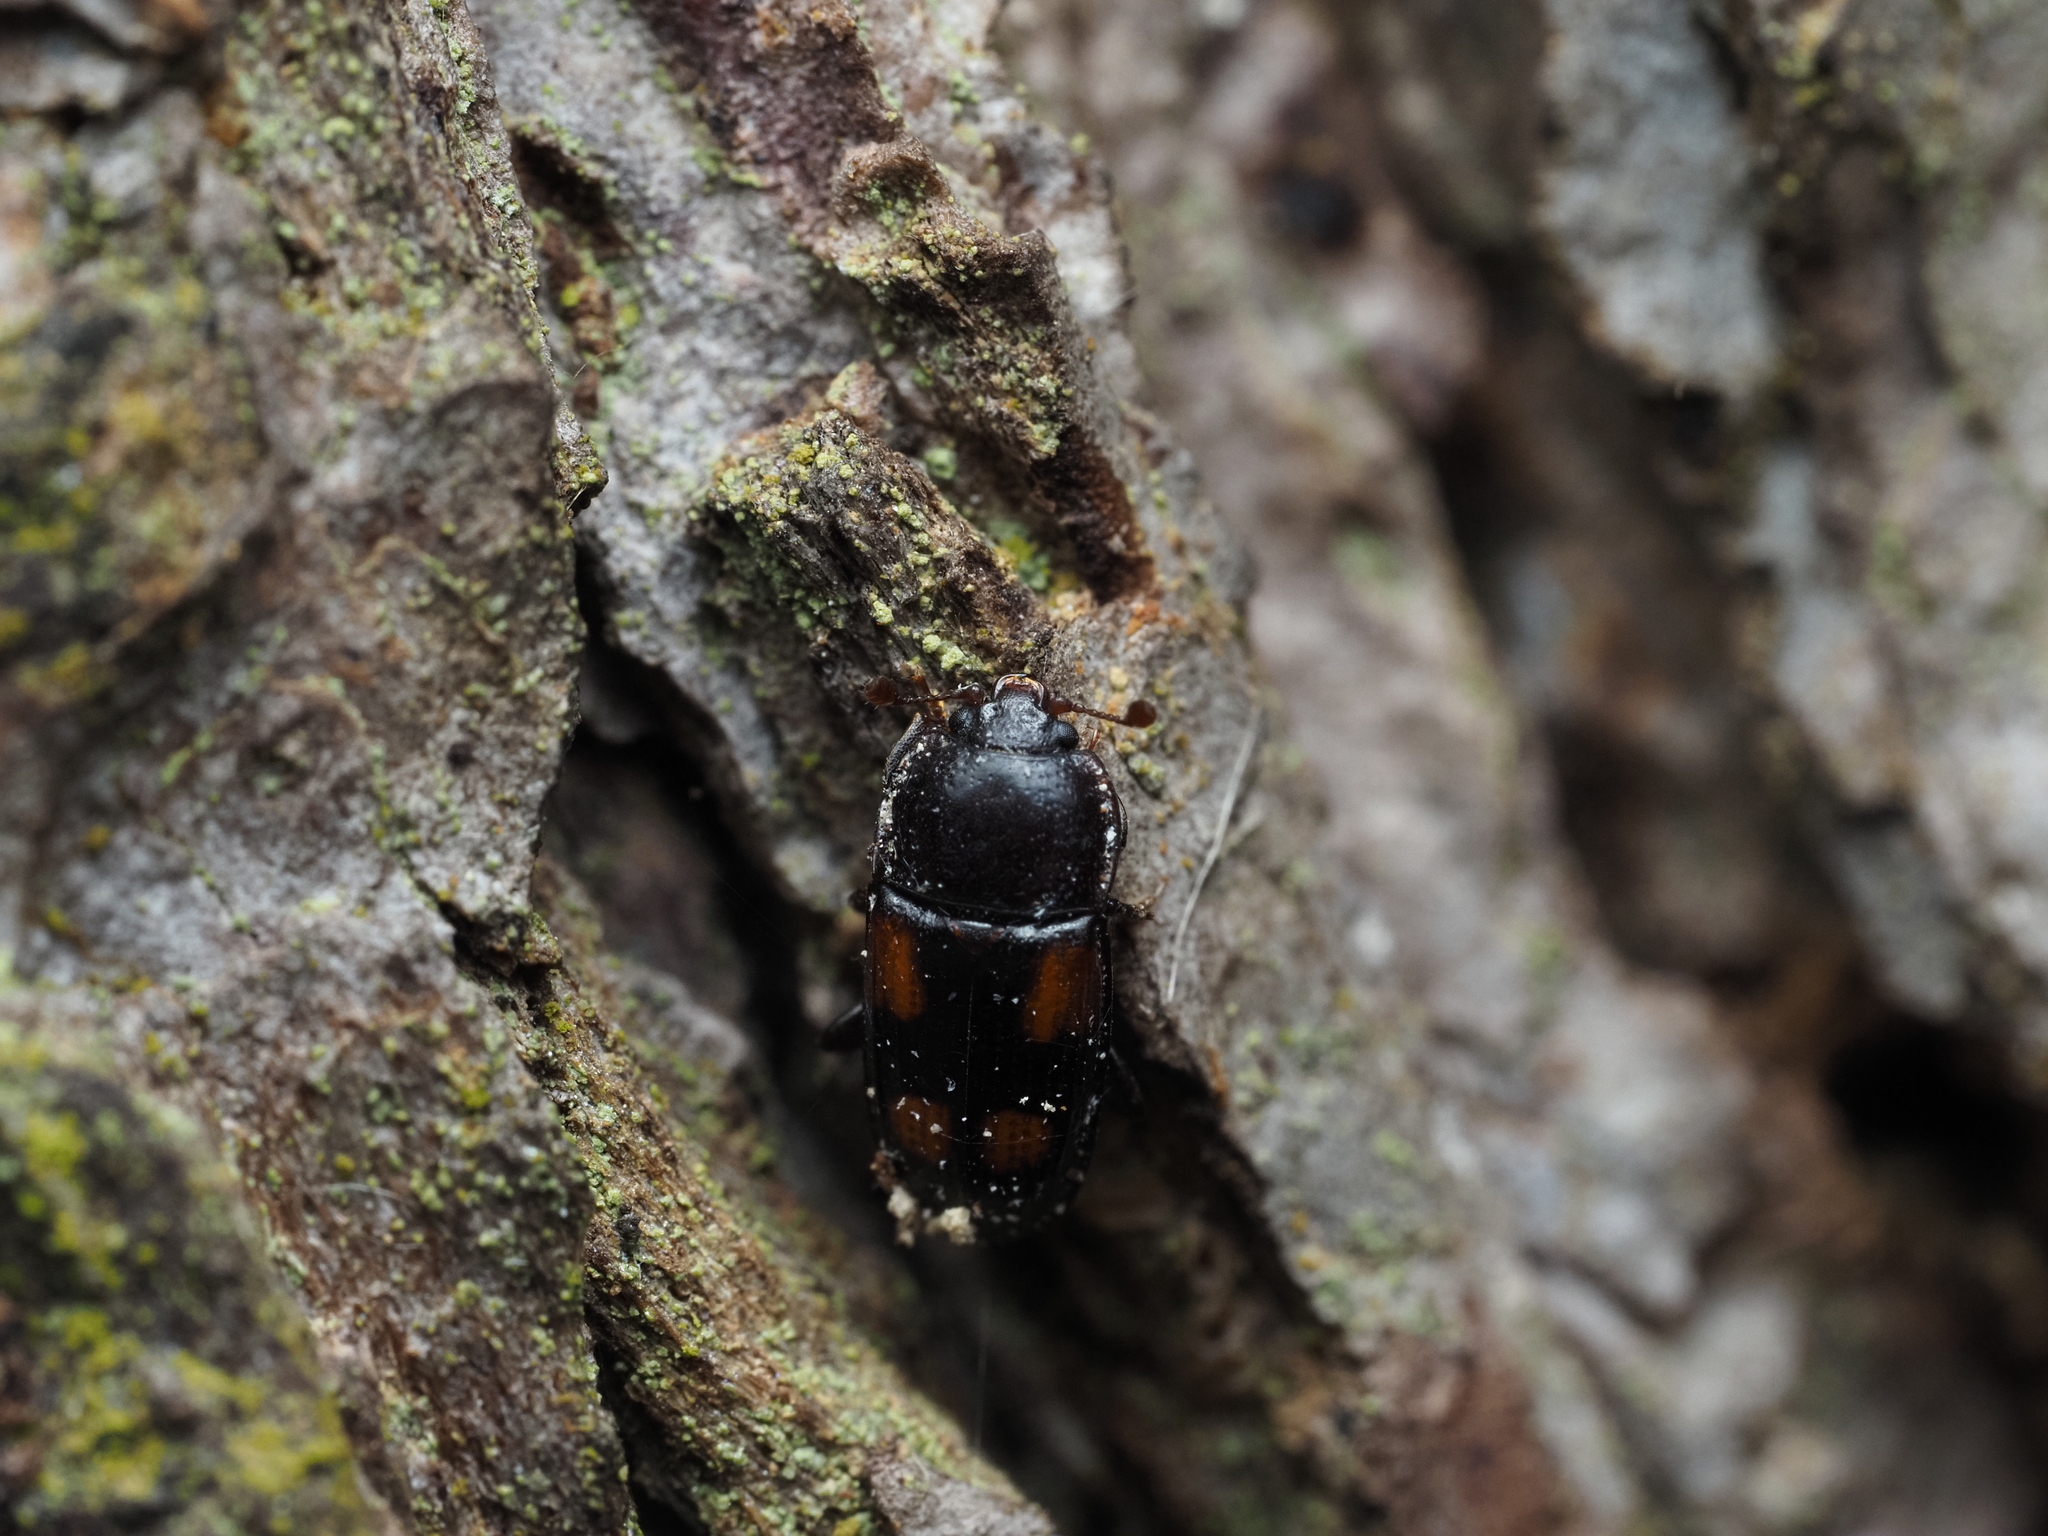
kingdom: Animalia
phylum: Arthropoda
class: Insecta
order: Coleoptera
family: Nitidulidae
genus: Ipidia
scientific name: Ipidia binotata
